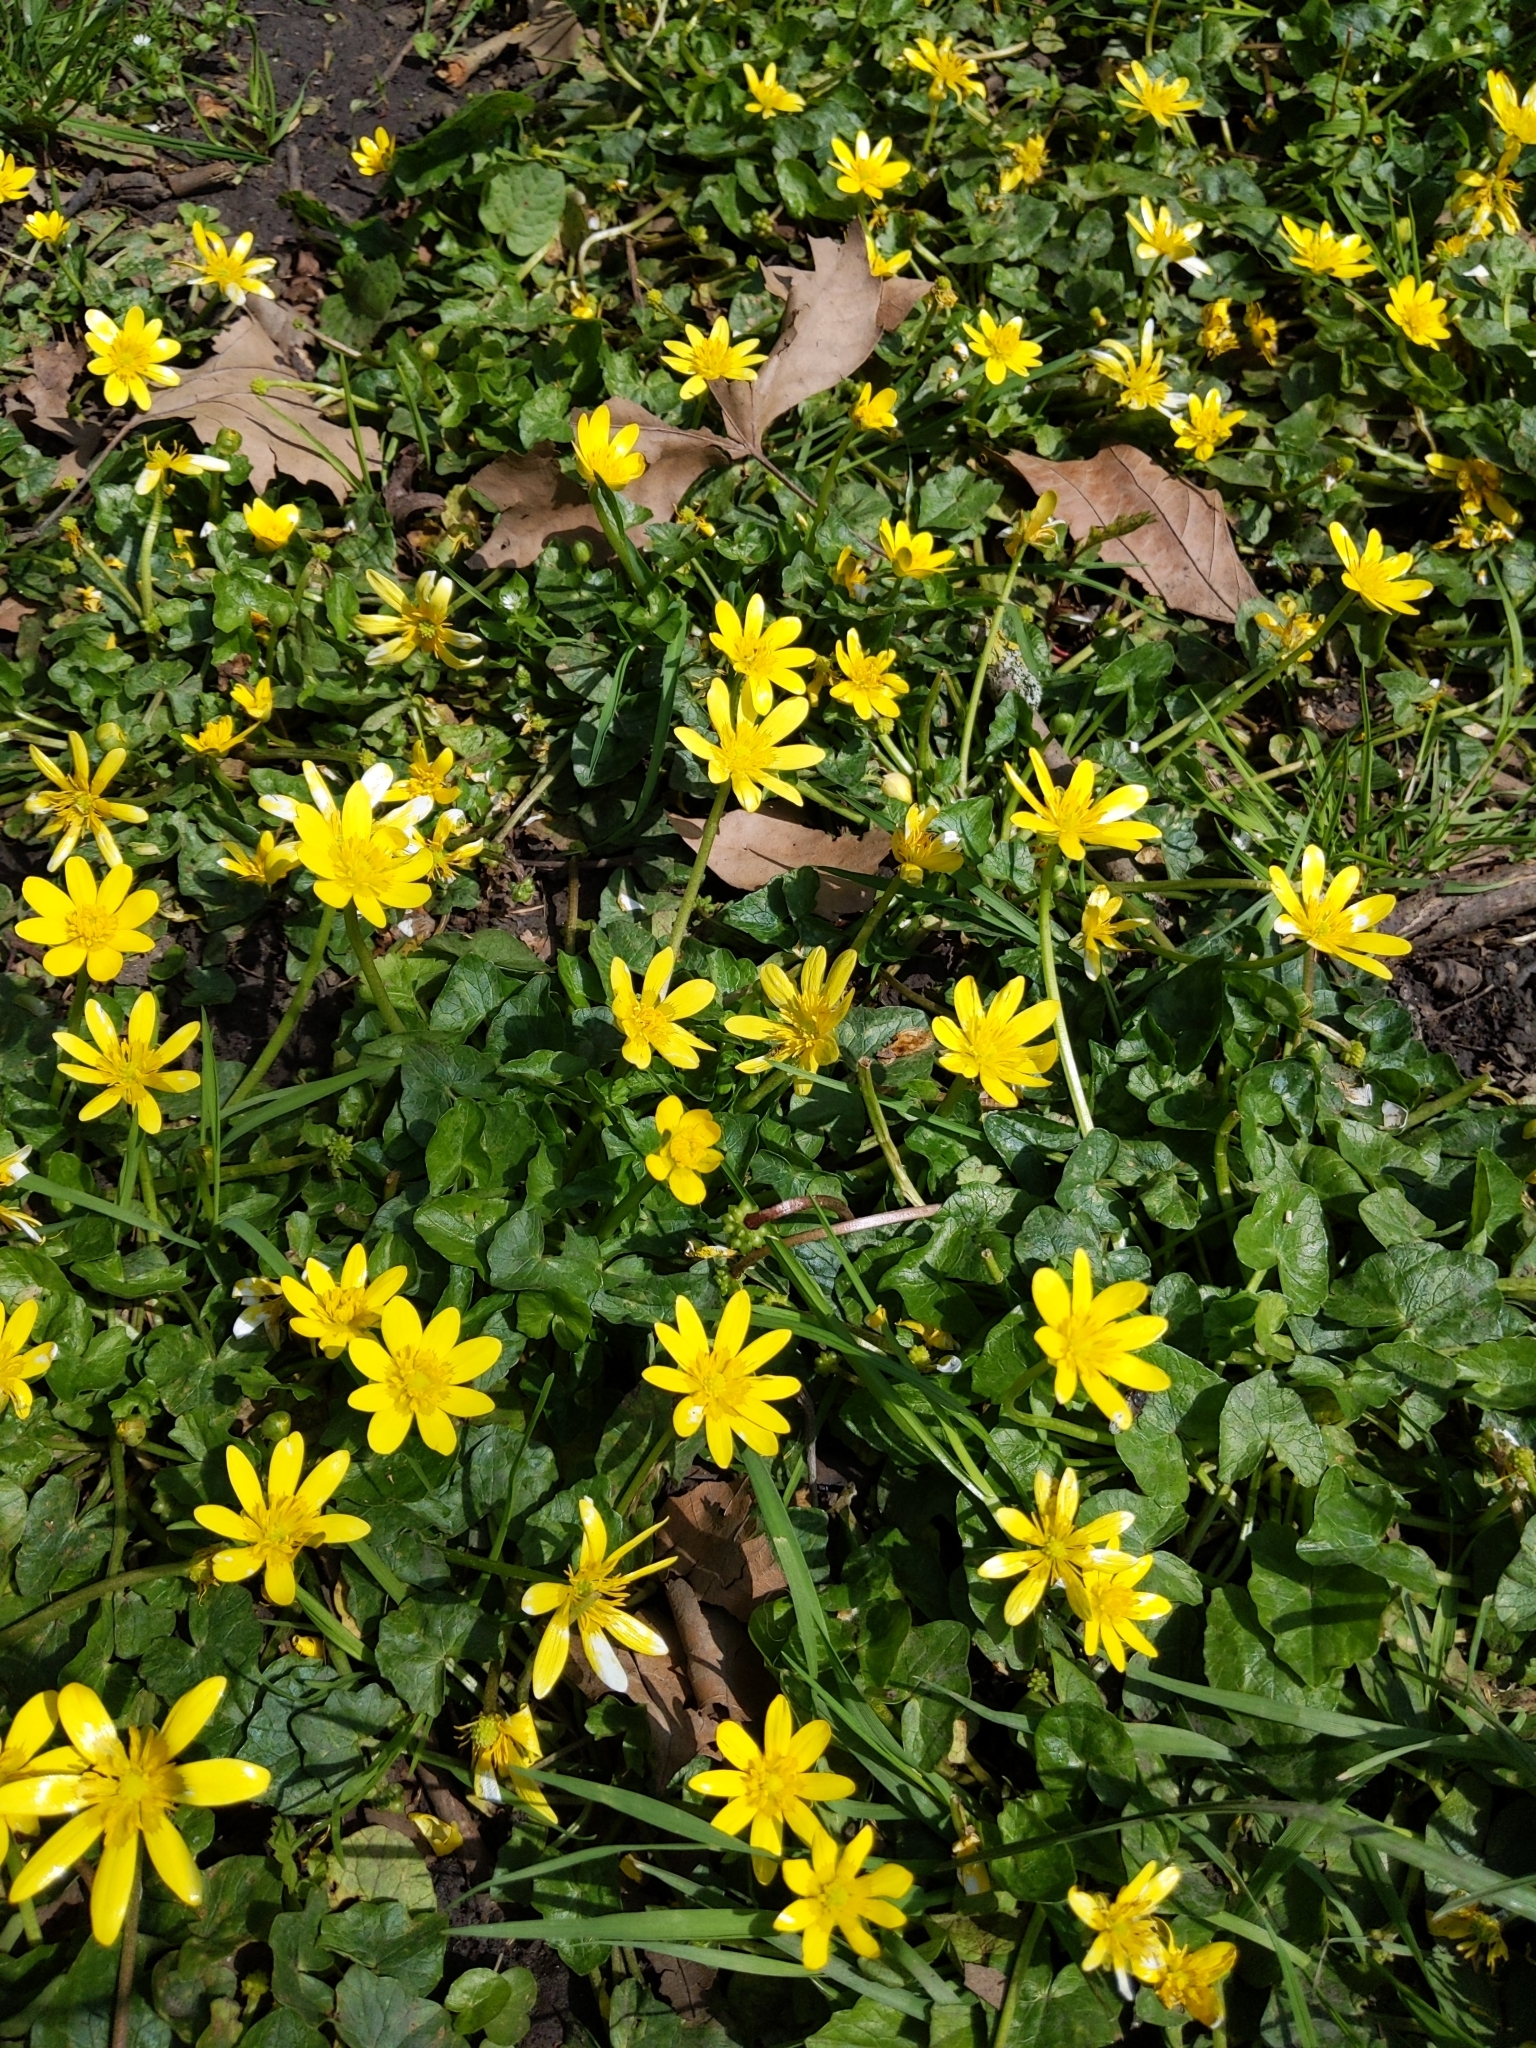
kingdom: Plantae
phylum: Tracheophyta
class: Magnoliopsida
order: Ranunculales
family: Ranunculaceae
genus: Ficaria
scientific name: Ficaria verna
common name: Lesser celandine
